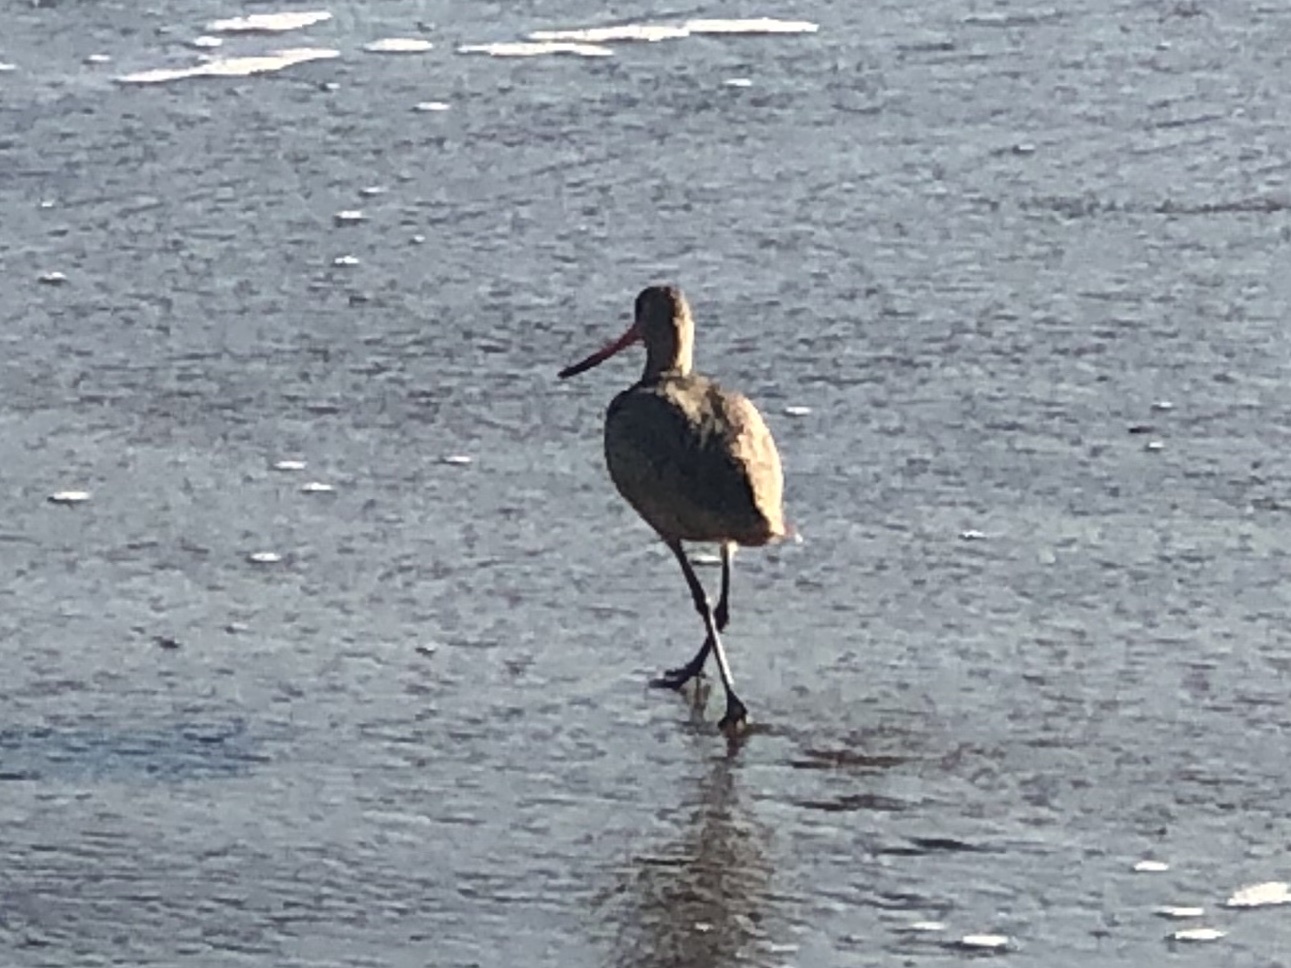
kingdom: Animalia
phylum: Chordata
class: Aves
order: Charadriiformes
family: Scolopacidae
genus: Limosa
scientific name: Limosa fedoa
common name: Marbled godwit
